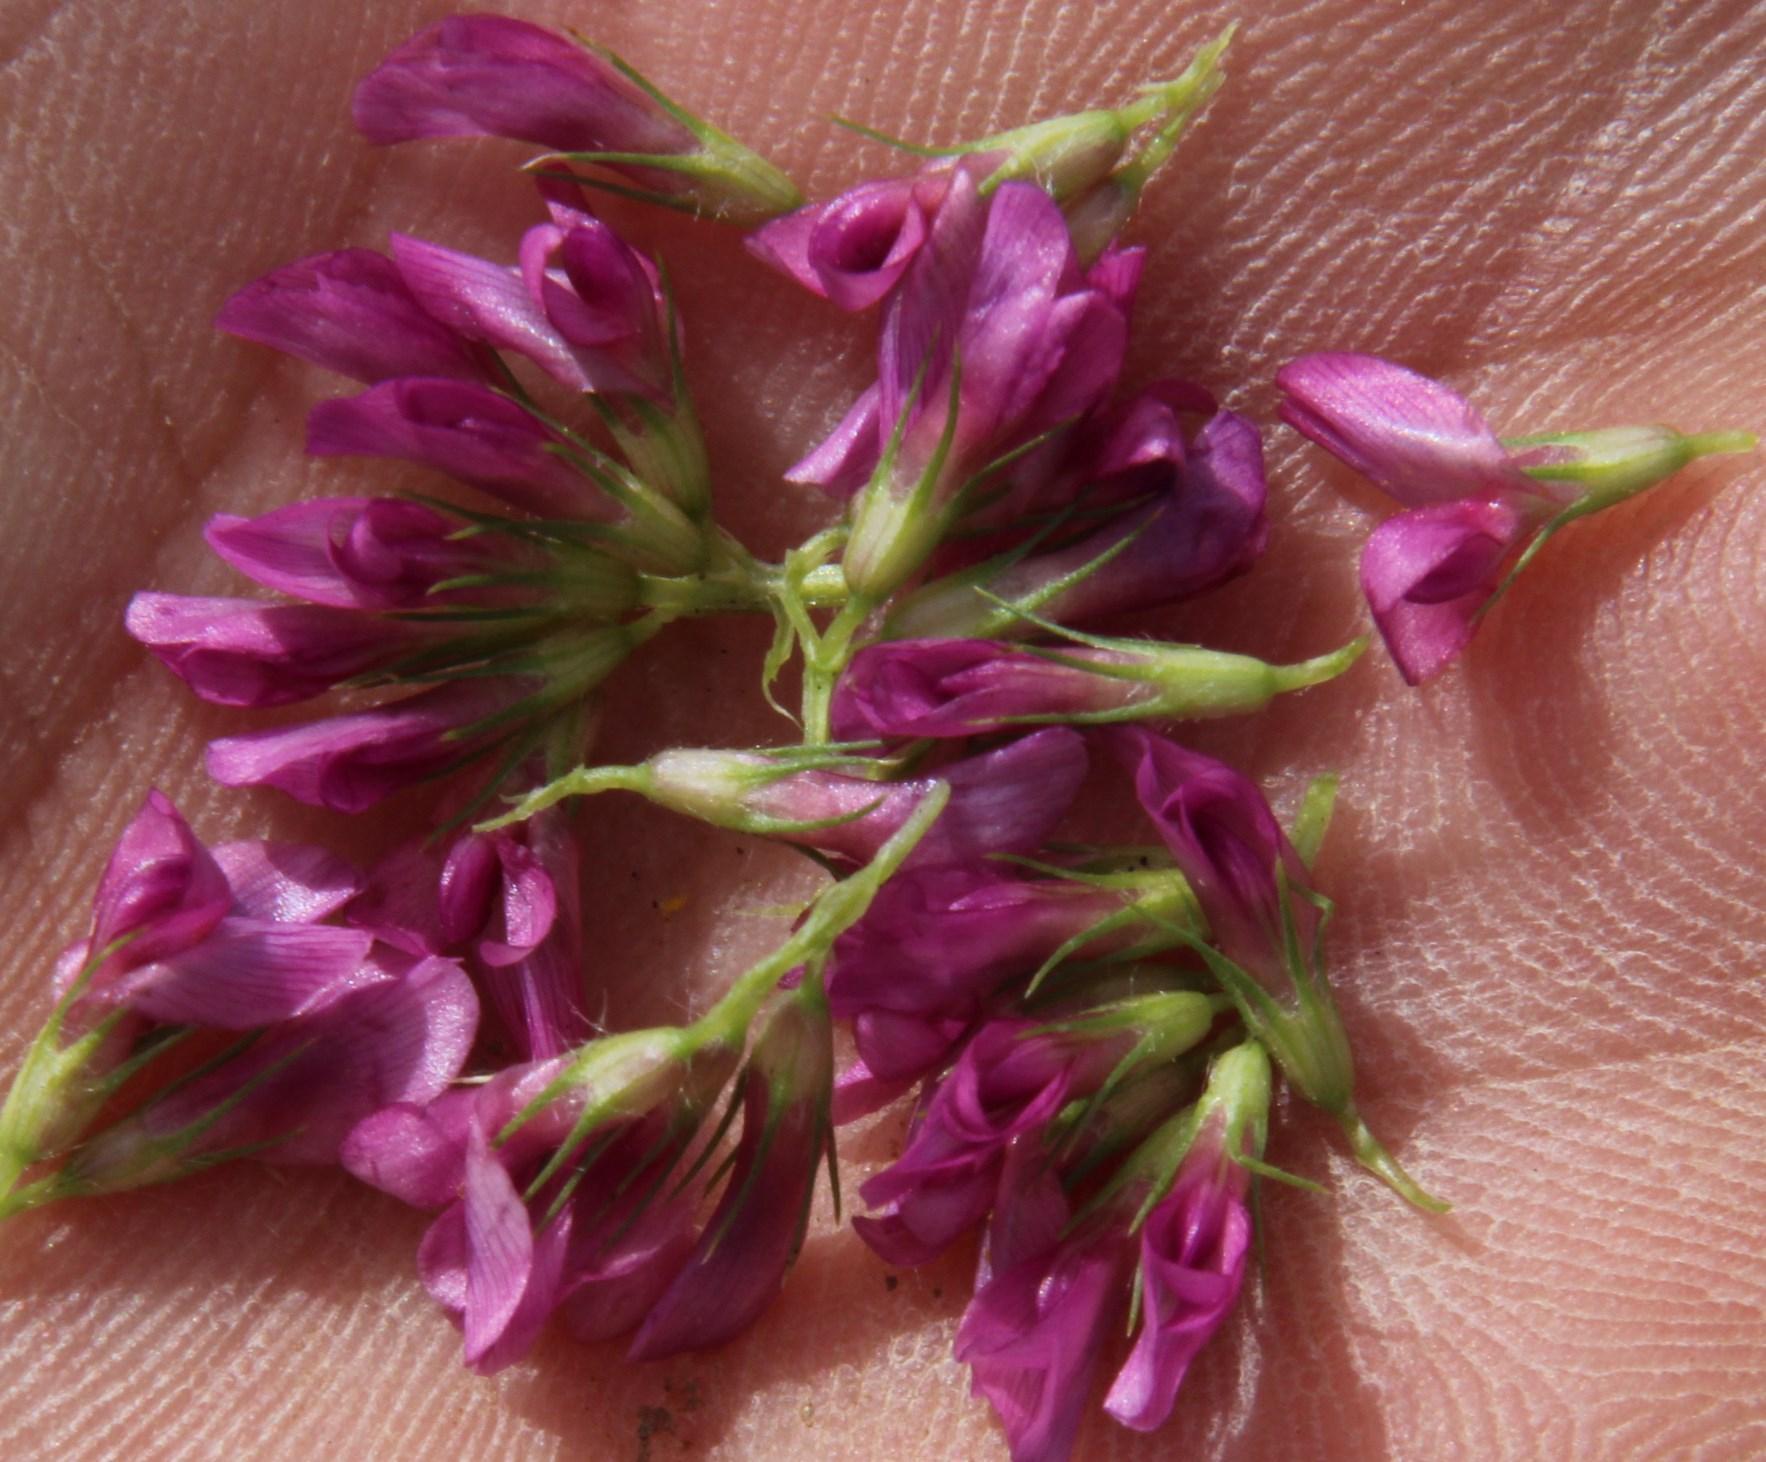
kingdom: Plantae
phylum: Tracheophyta
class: Magnoliopsida
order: Fabales
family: Fabaceae
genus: Trifolium
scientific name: Trifolium burchellianum
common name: Burchell's clover
